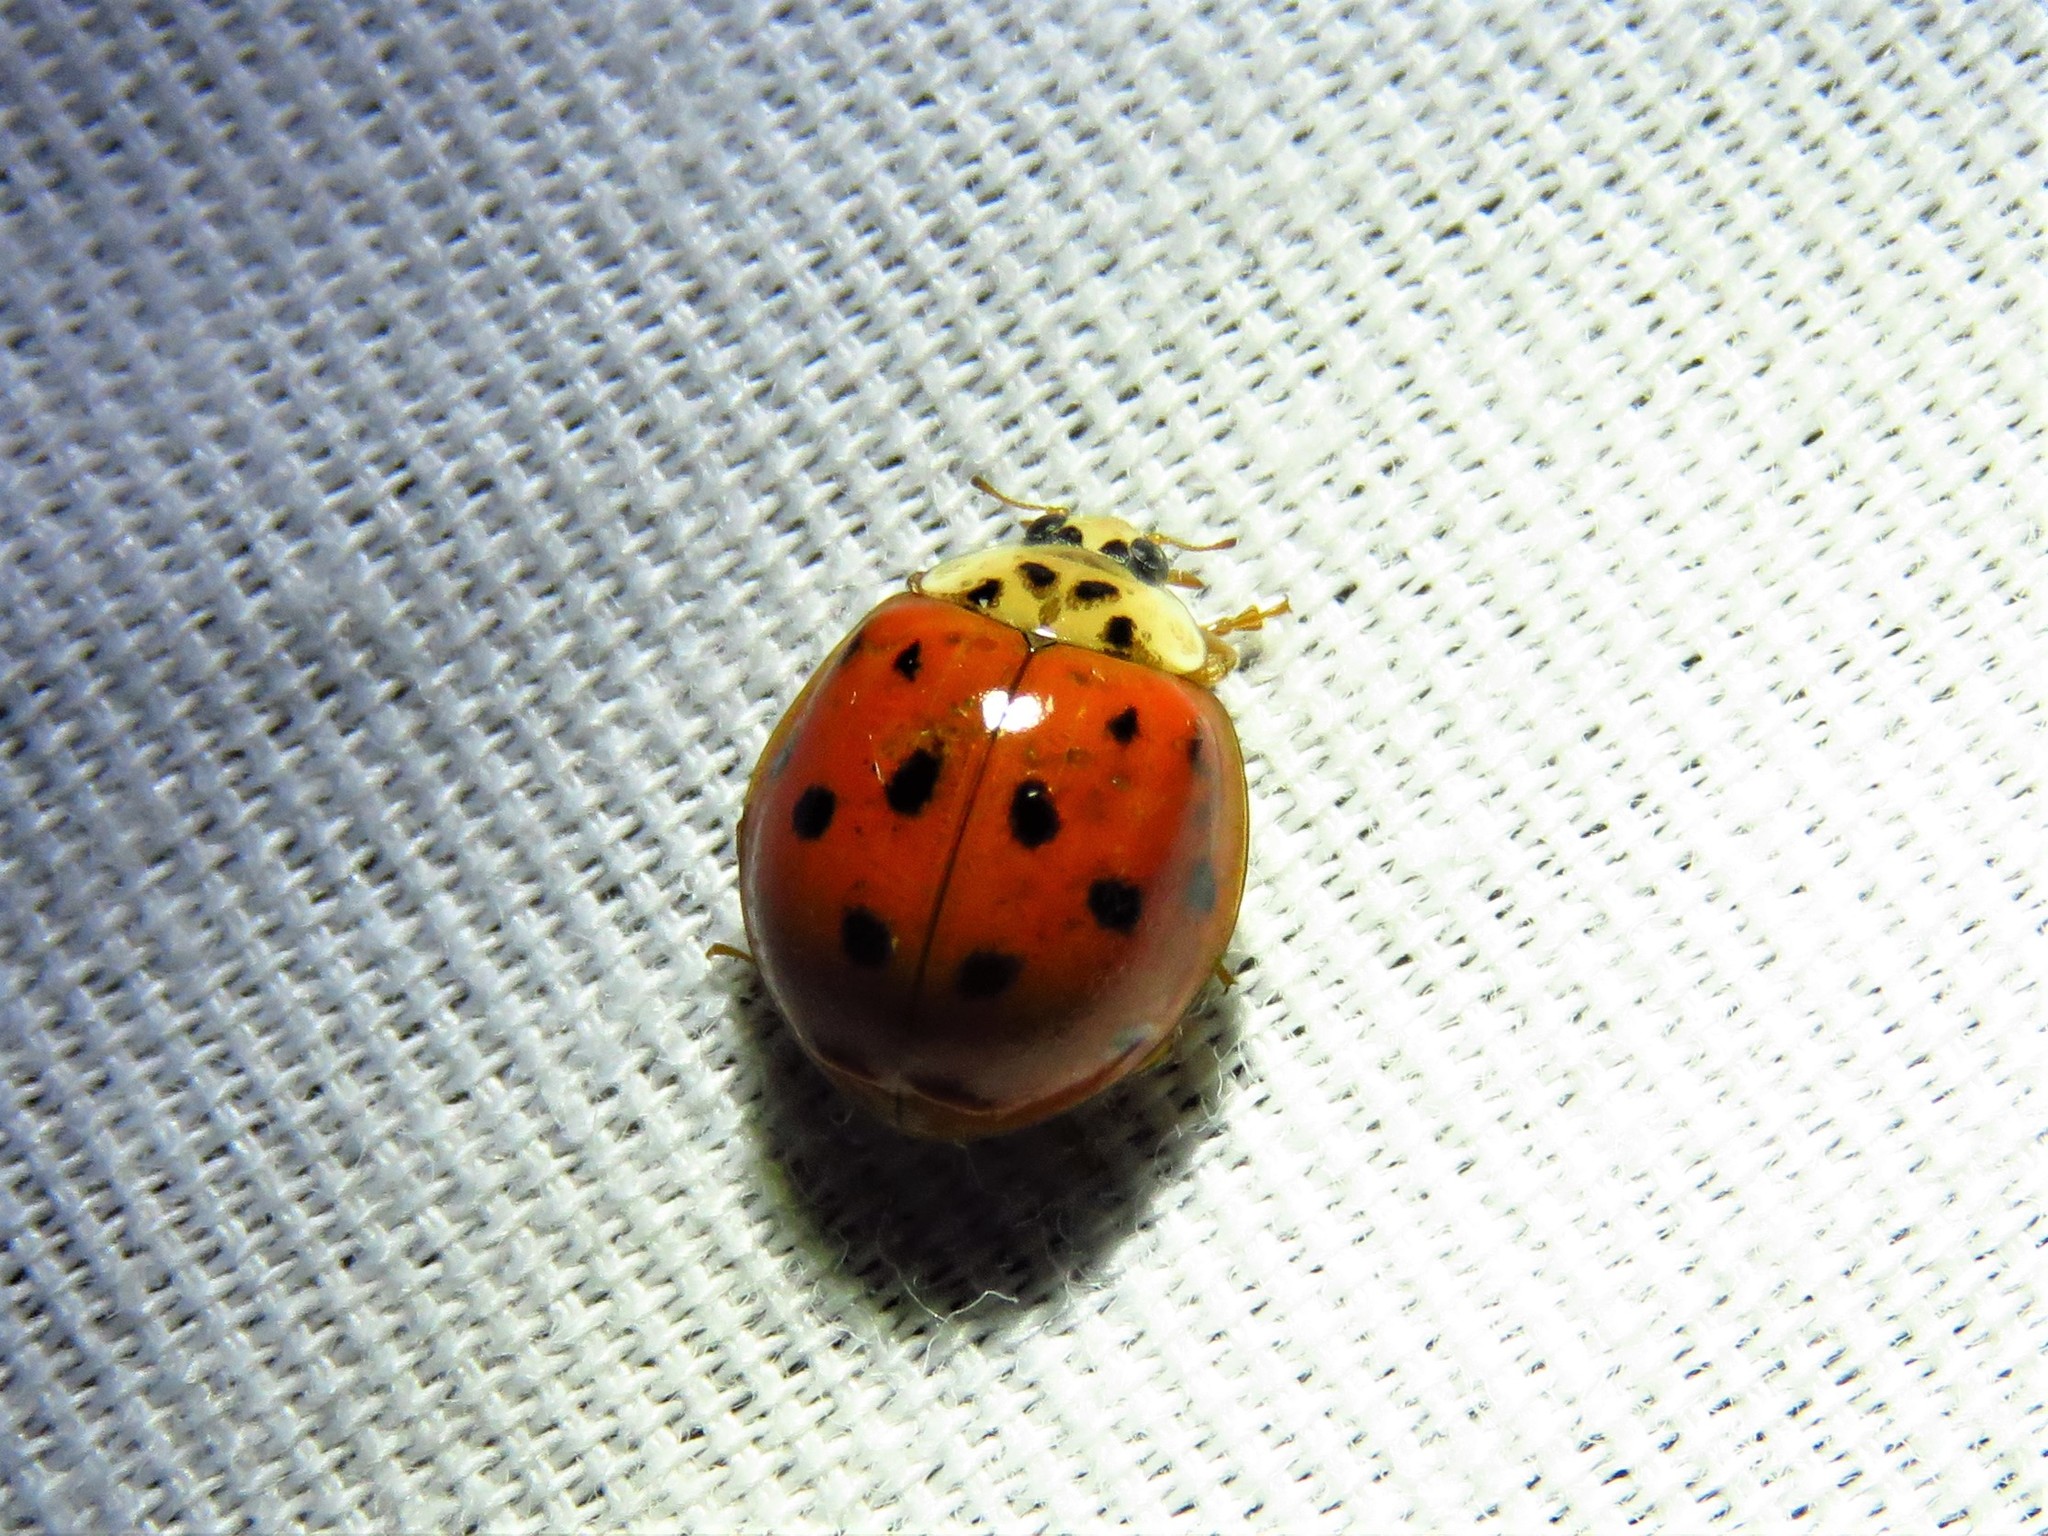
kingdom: Animalia
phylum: Arthropoda
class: Insecta
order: Coleoptera
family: Coccinellidae
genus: Harmonia
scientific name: Harmonia axyridis
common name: Harlequin ladybird
